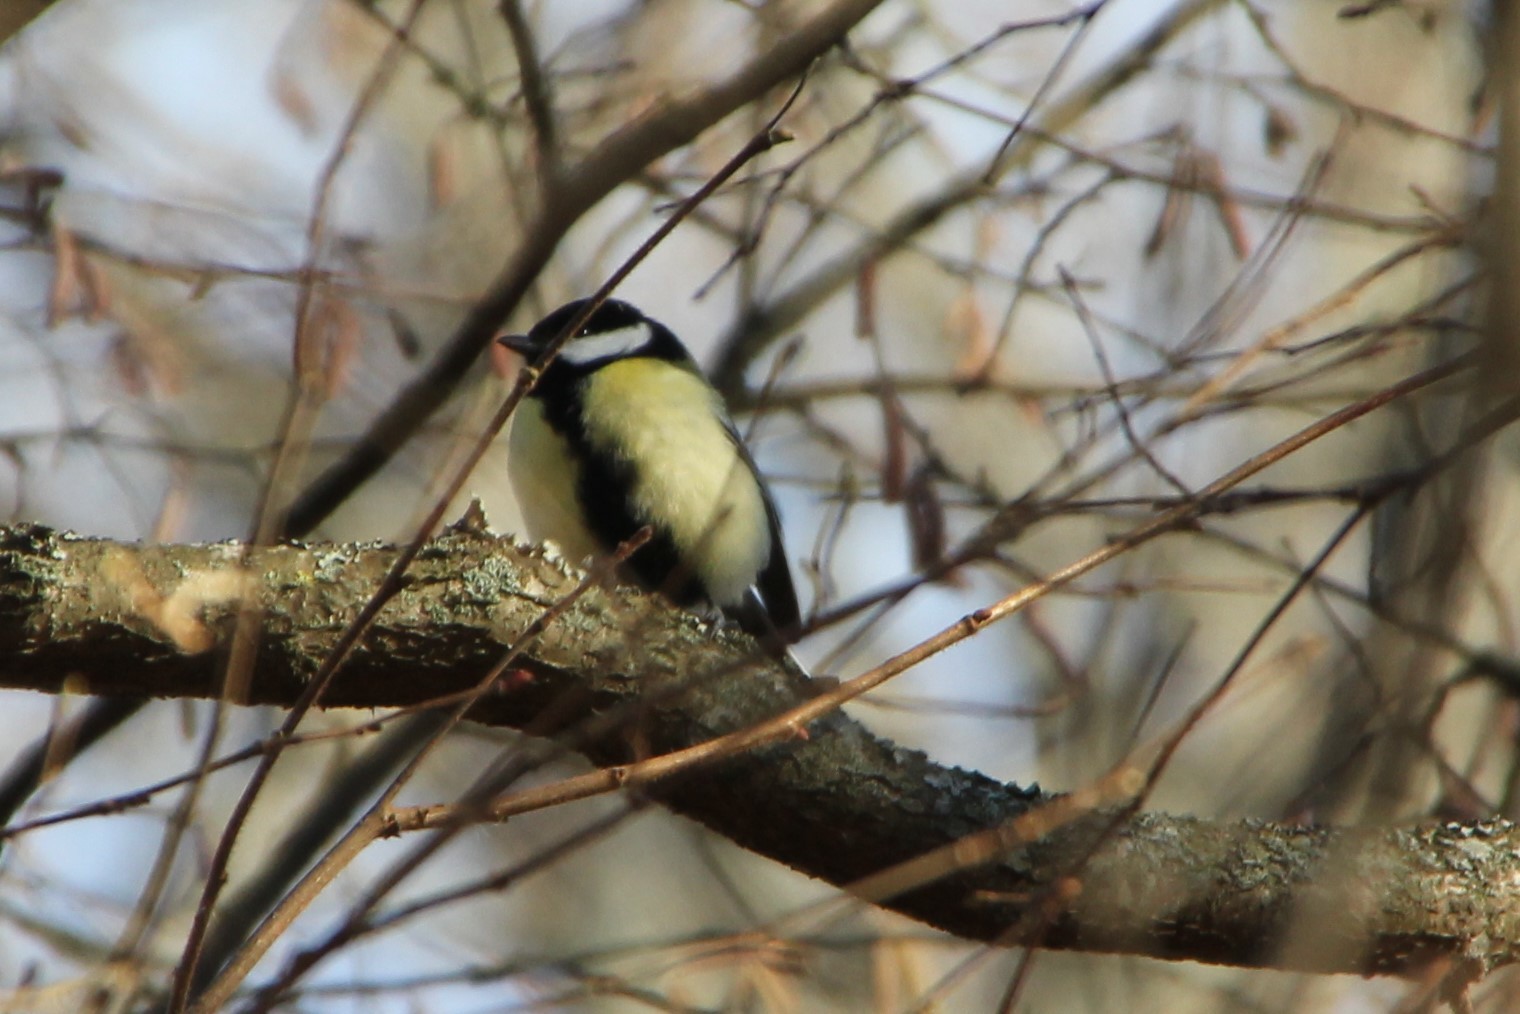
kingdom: Animalia
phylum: Chordata
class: Aves
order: Passeriformes
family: Paridae
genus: Parus
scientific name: Parus major
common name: Great tit
